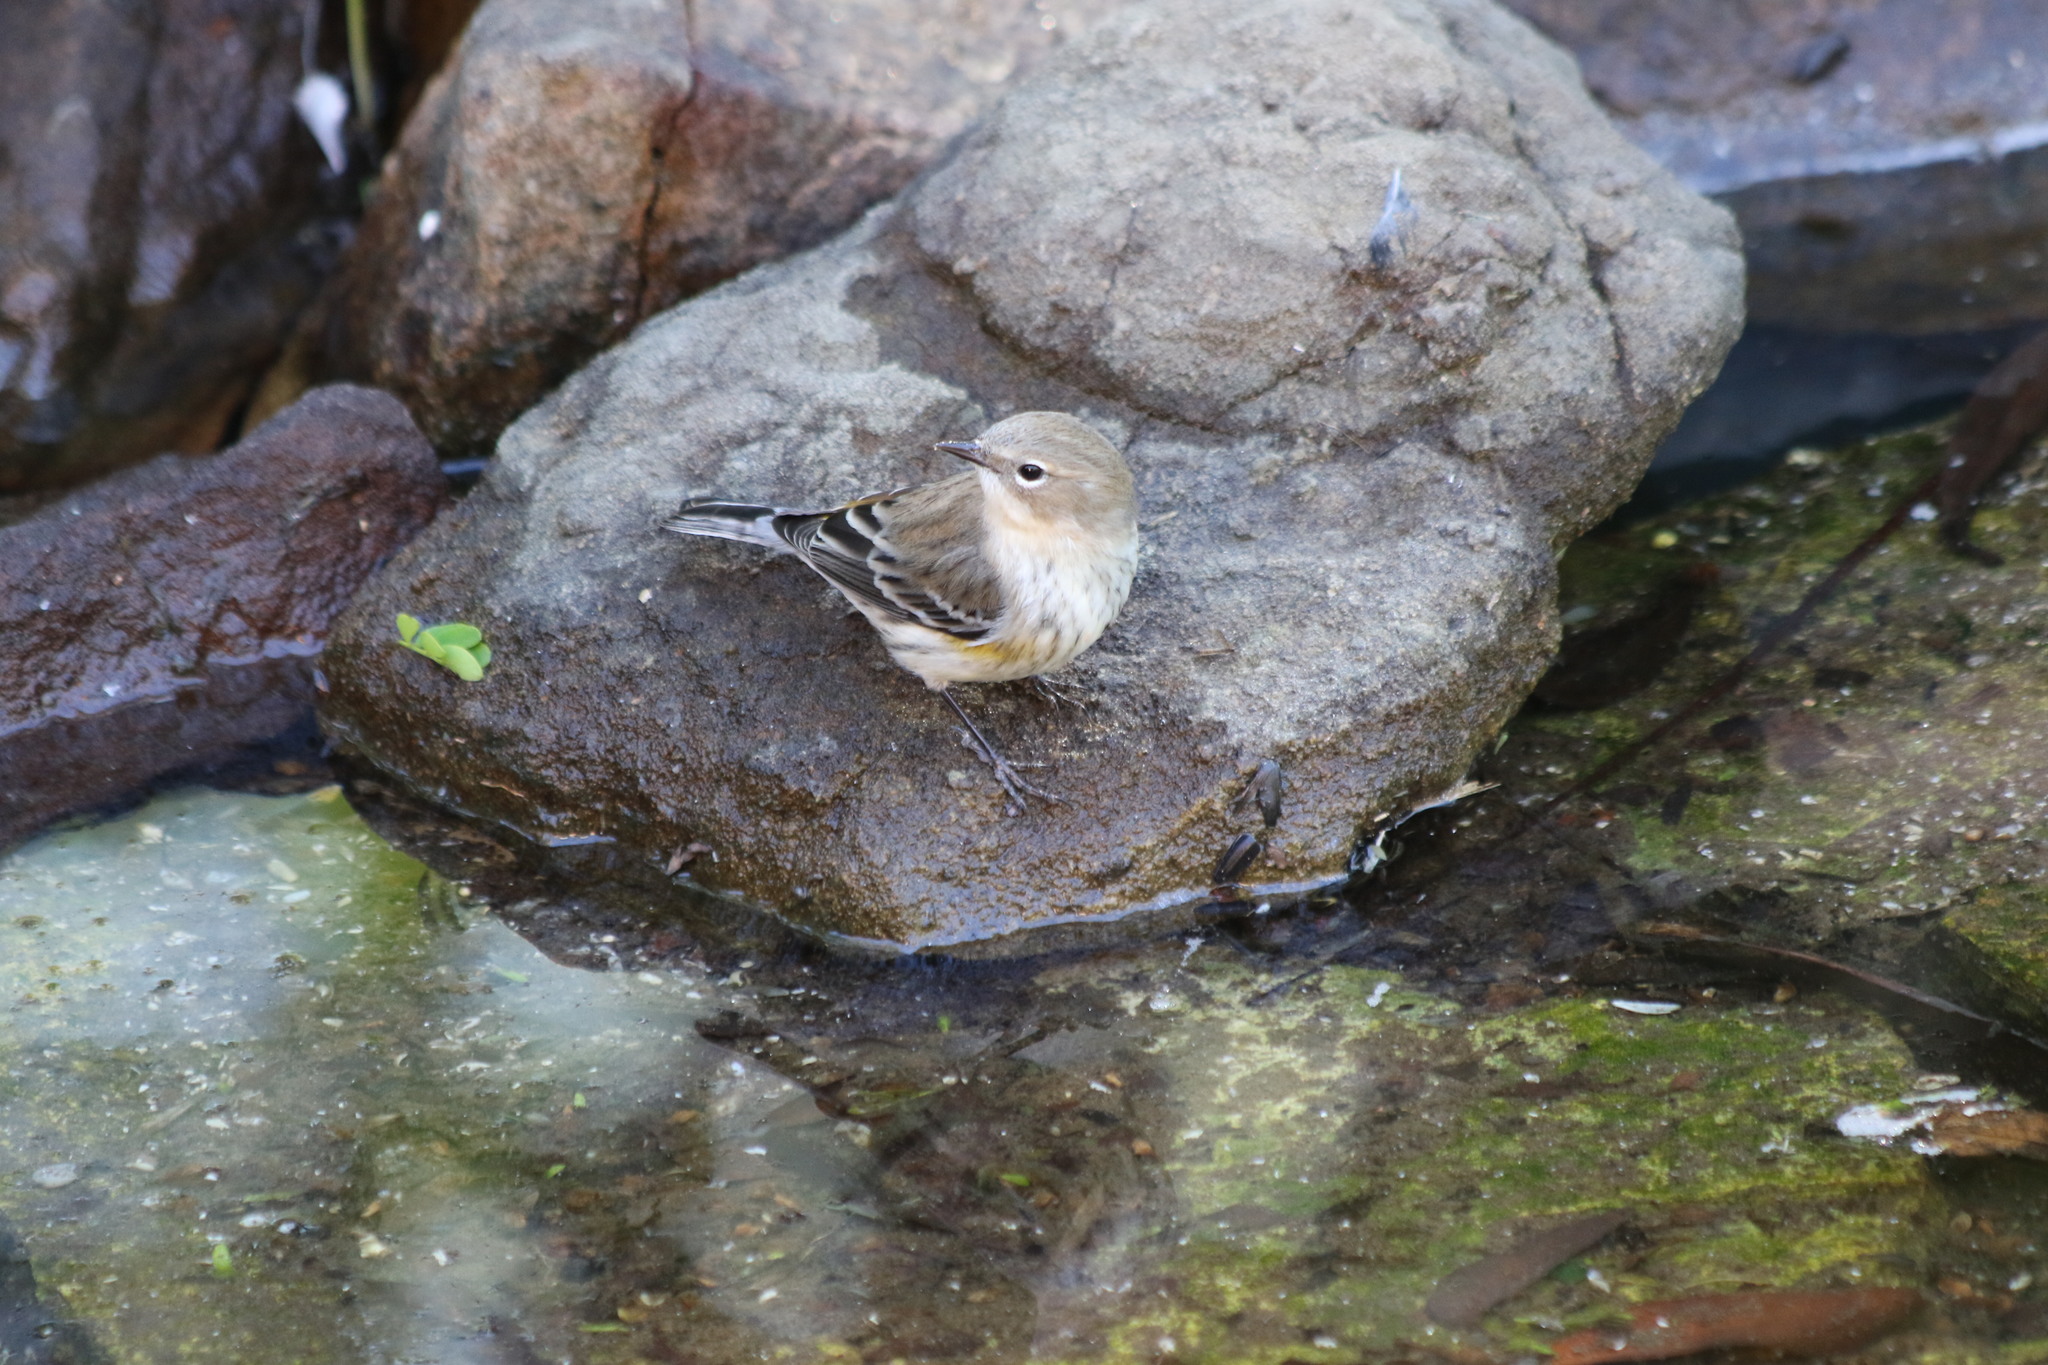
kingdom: Animalia
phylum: Chordata
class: Aves
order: Passeriformes
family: Parulidae
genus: Setophaga
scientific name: Setophaga coronata
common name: Myrtle warbler
